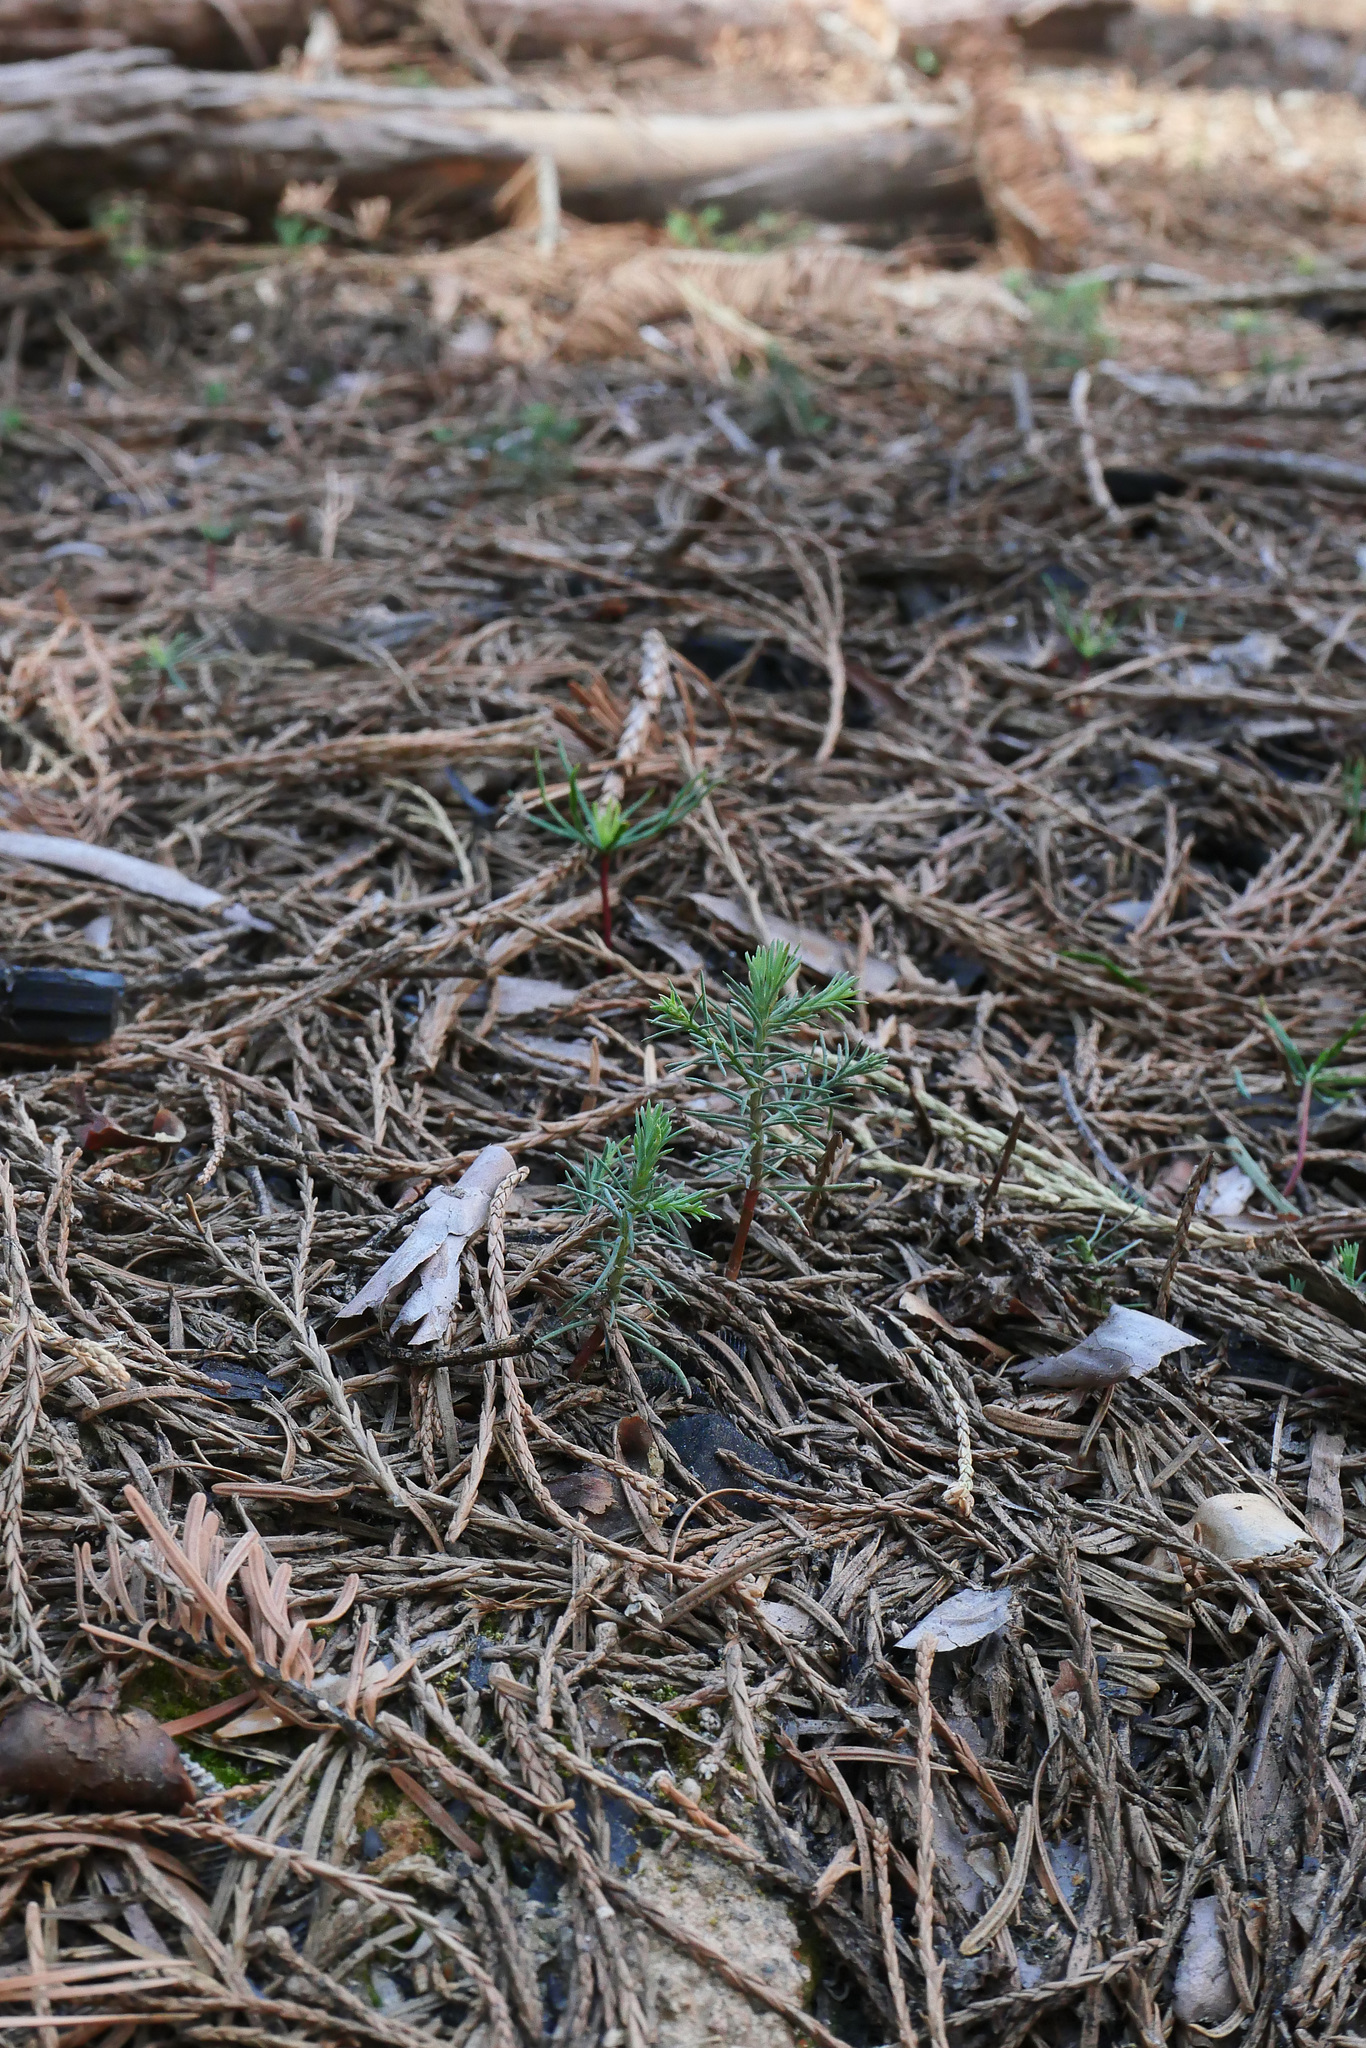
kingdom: Plantae
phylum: Tracheophyta
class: Pinopsida
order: Pinales
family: Cupressaceae
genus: Sequoiadendron
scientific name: Sequoiadendron giganteum
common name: Wellingtonia
